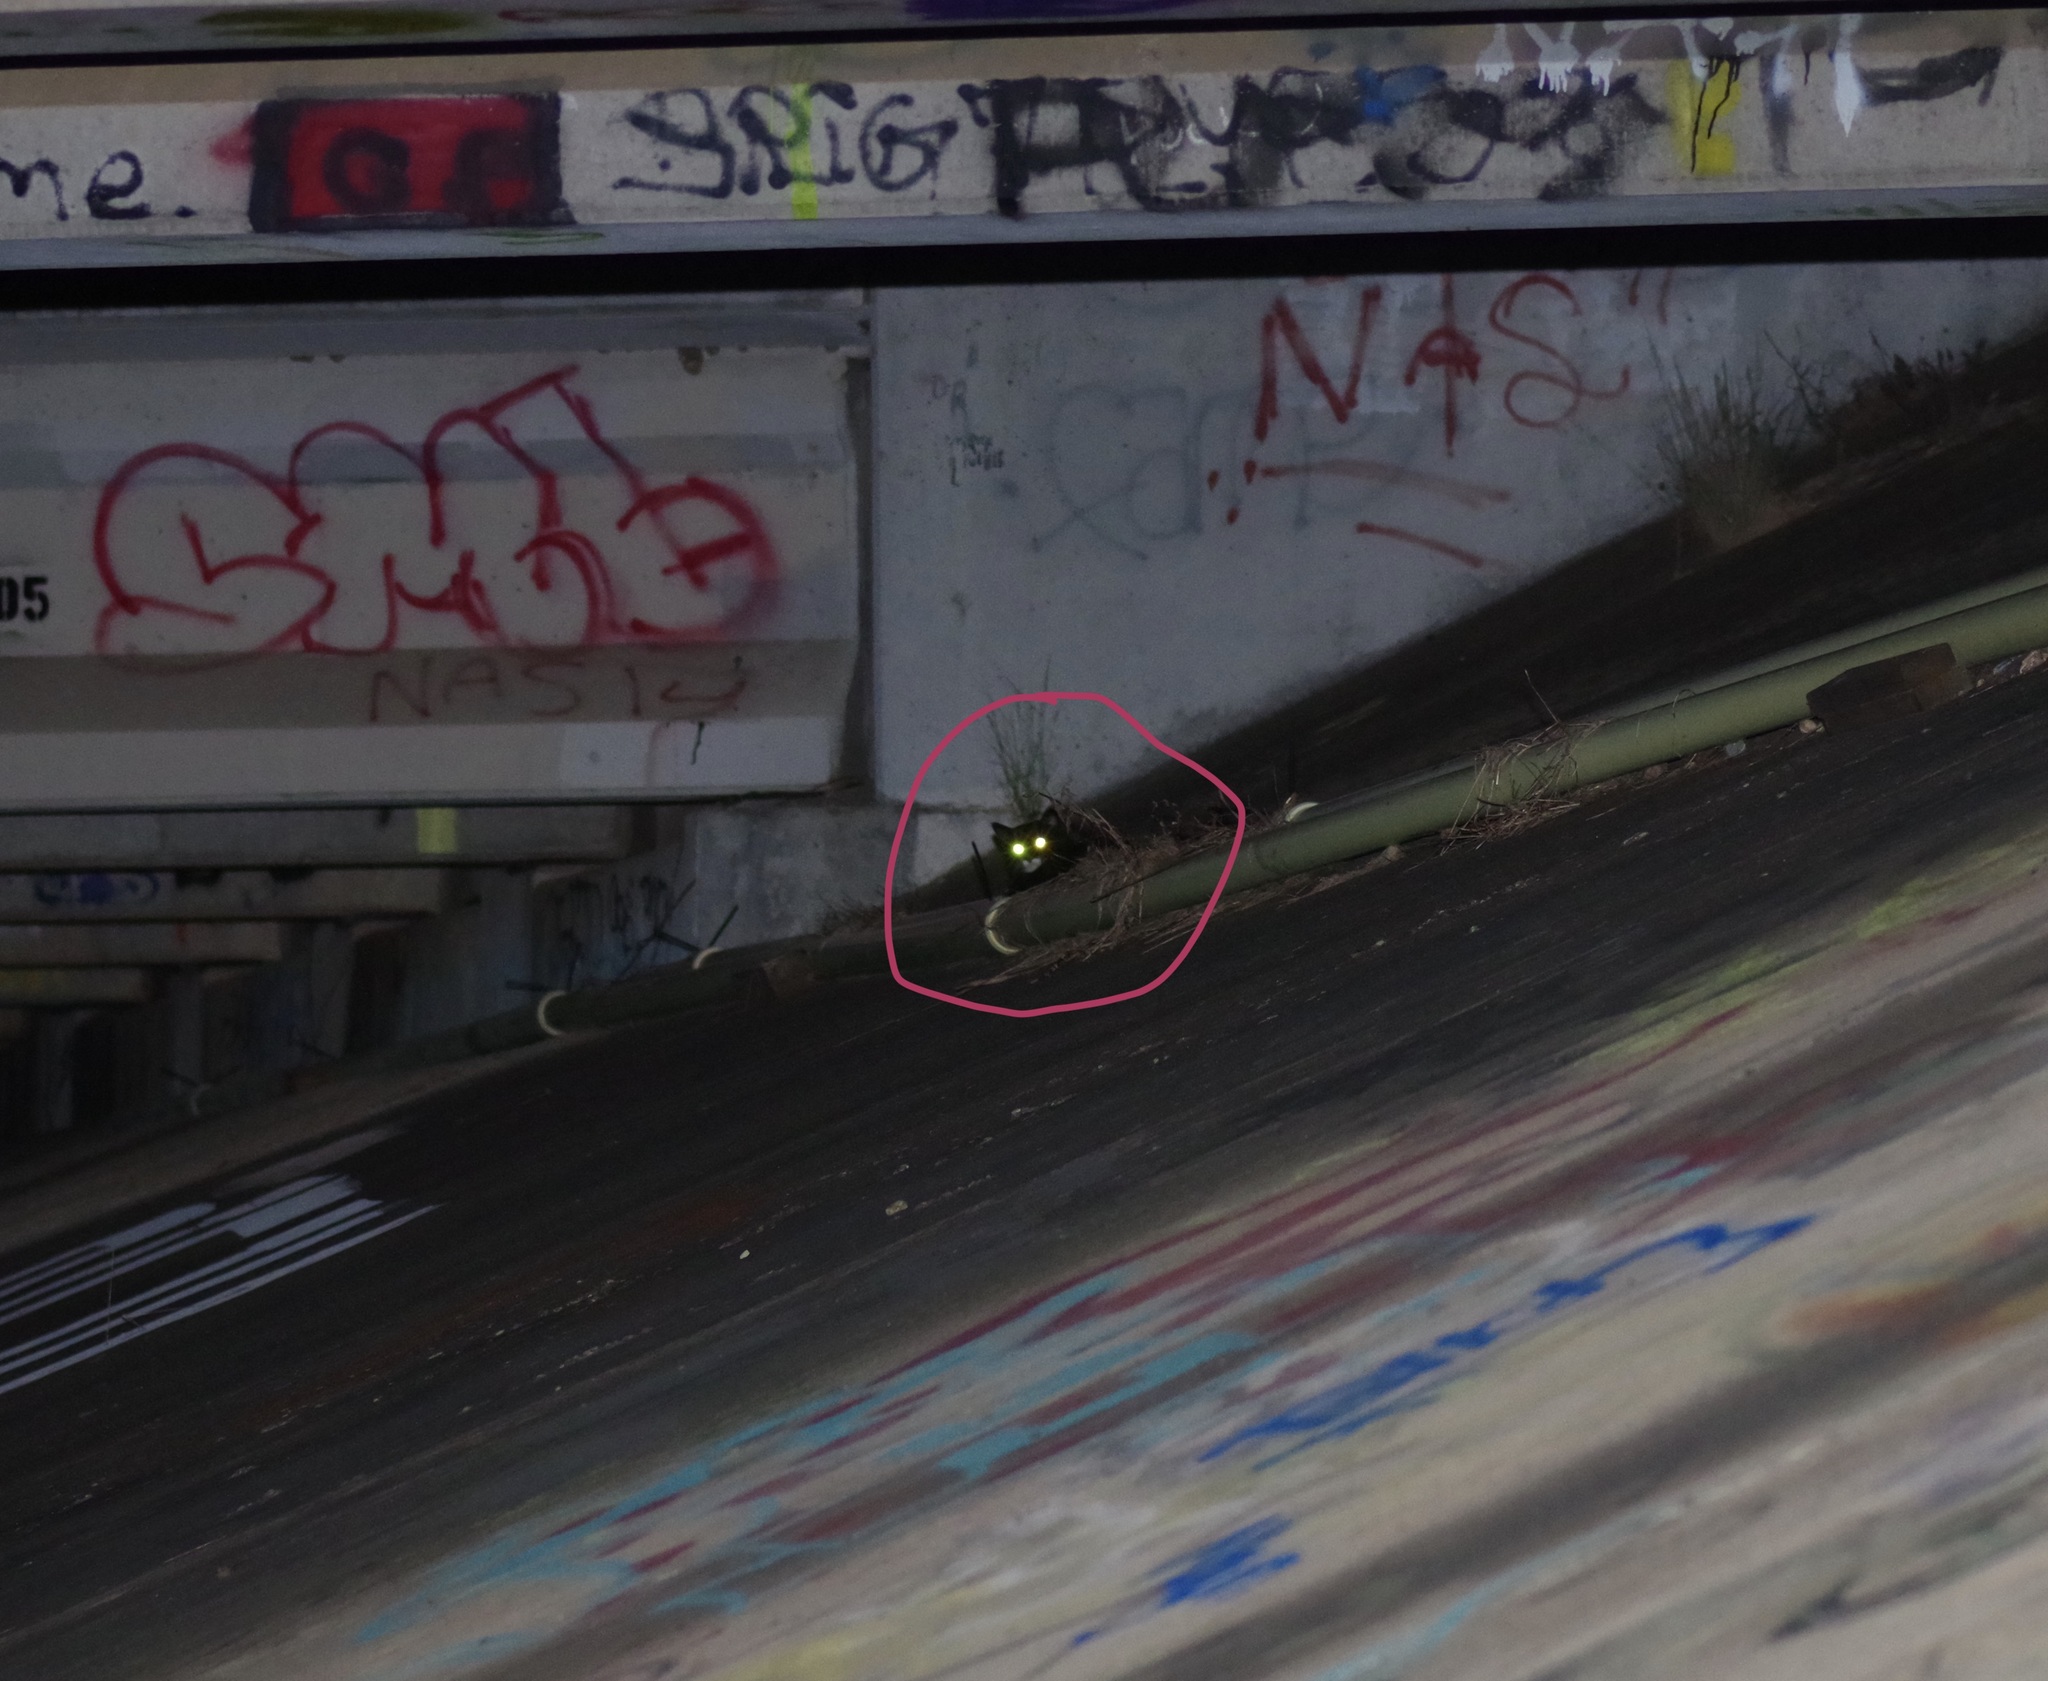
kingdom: Animalia
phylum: Chordata
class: Mammalia
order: Carnivora
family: Felidae
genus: Felis
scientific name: Felis catus
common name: Domestic cat
